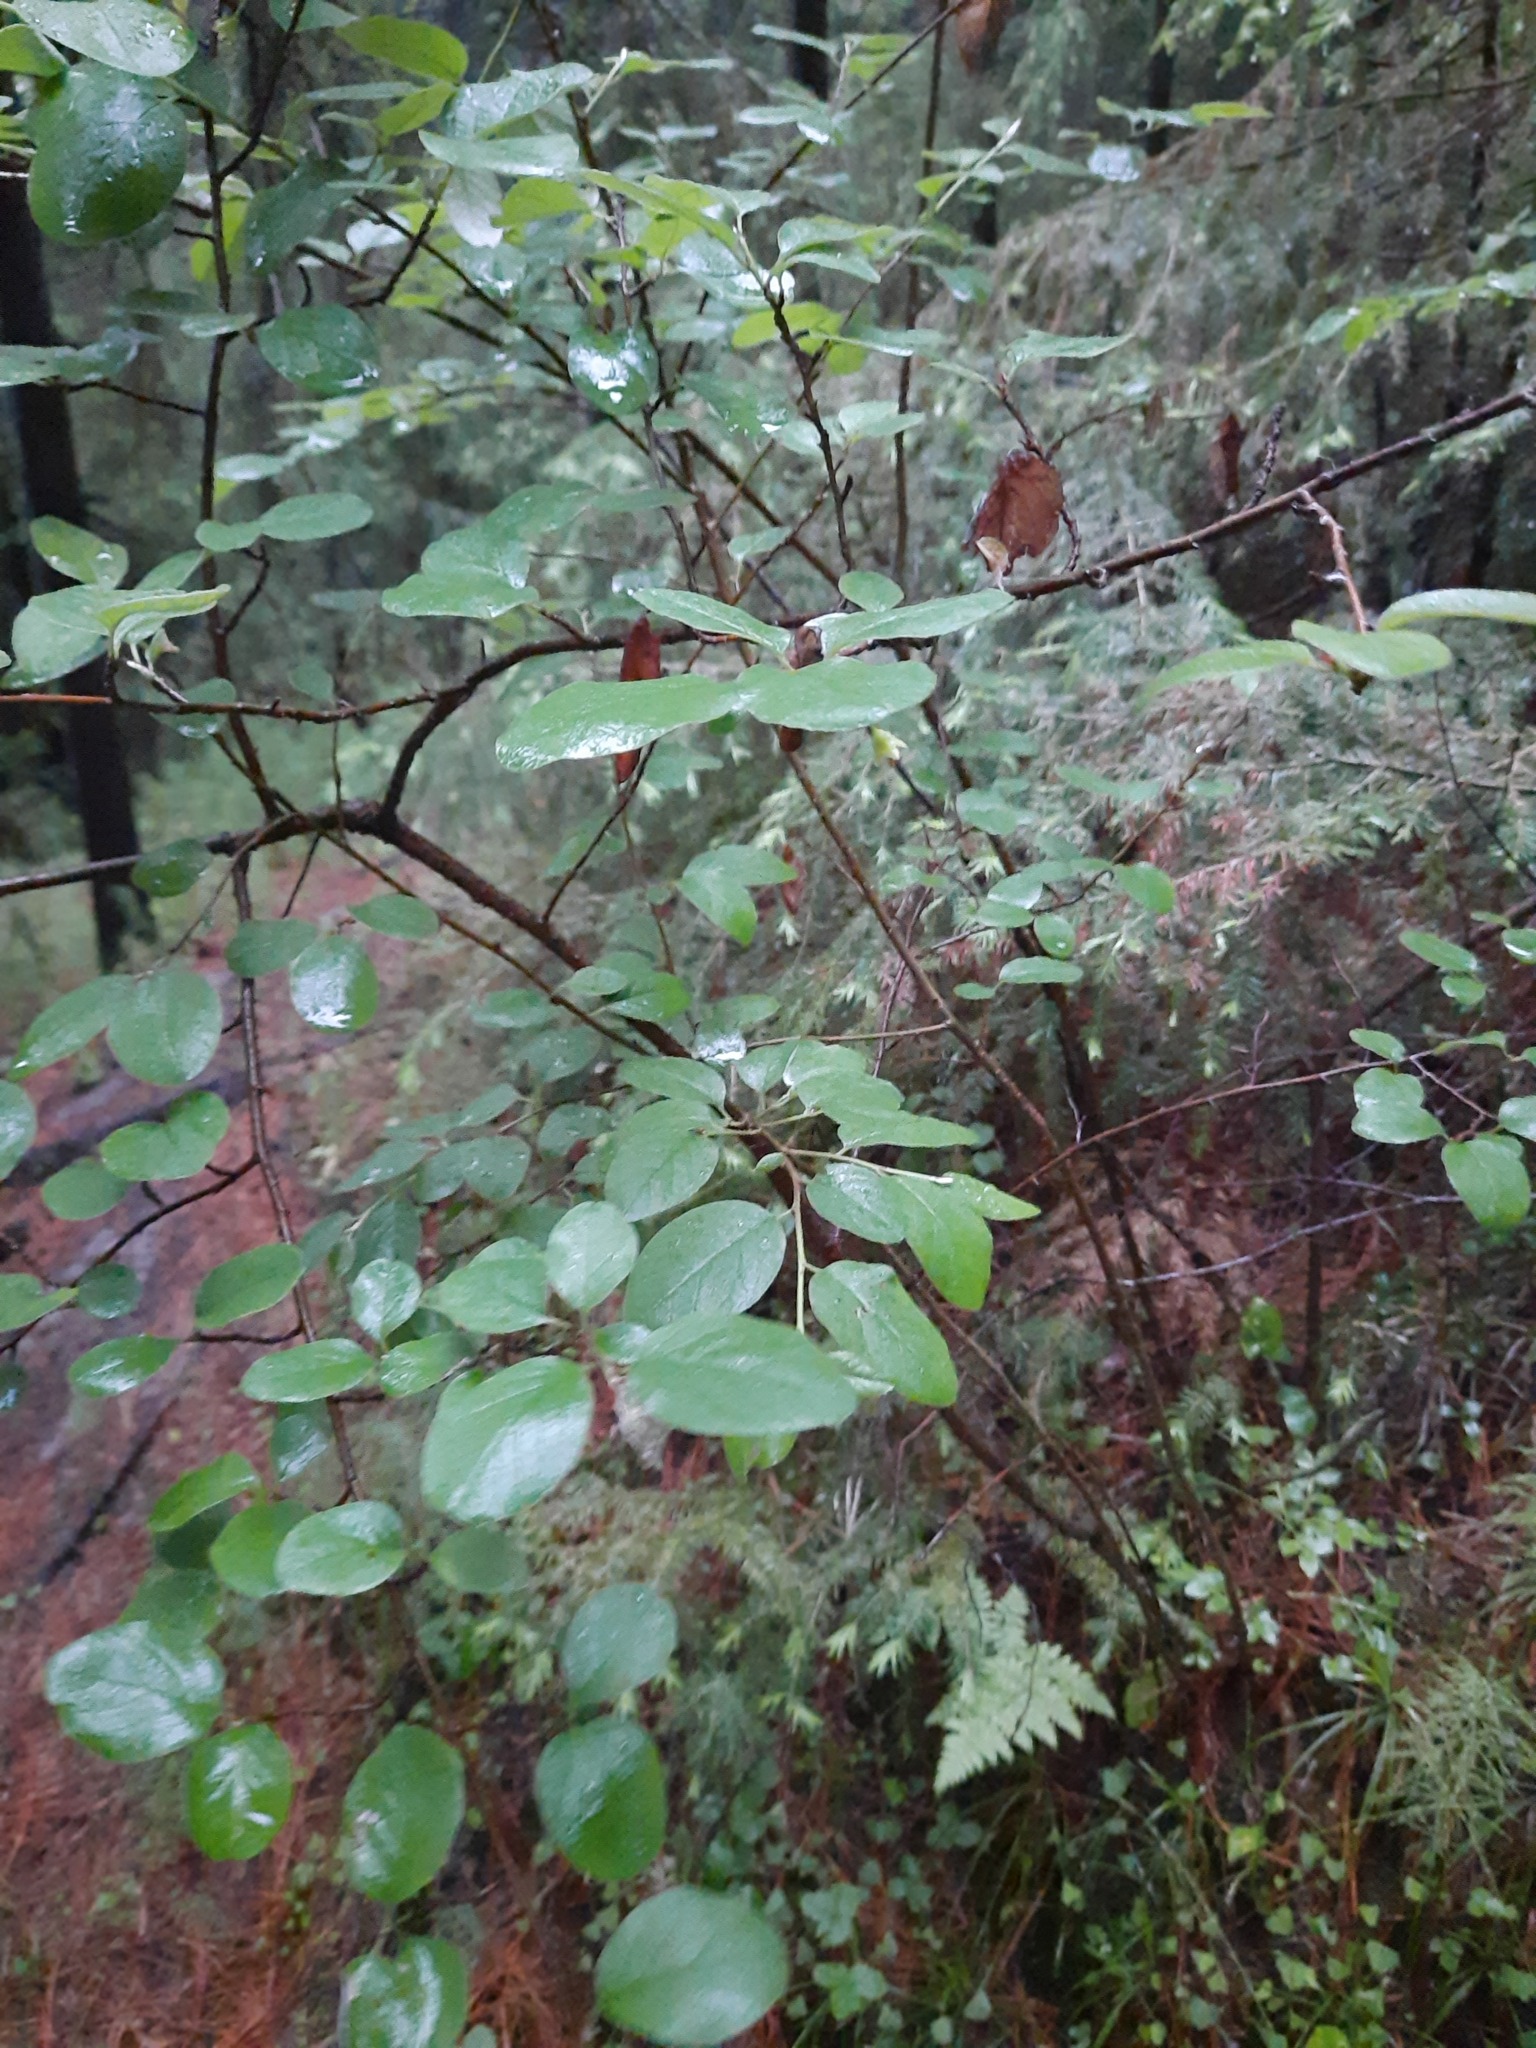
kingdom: Plantae
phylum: Tracheophyta
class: Magnoliopsida
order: Rosales
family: Rosaceae
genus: Cotoneaster
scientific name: Cotoneaster melanocarpus
